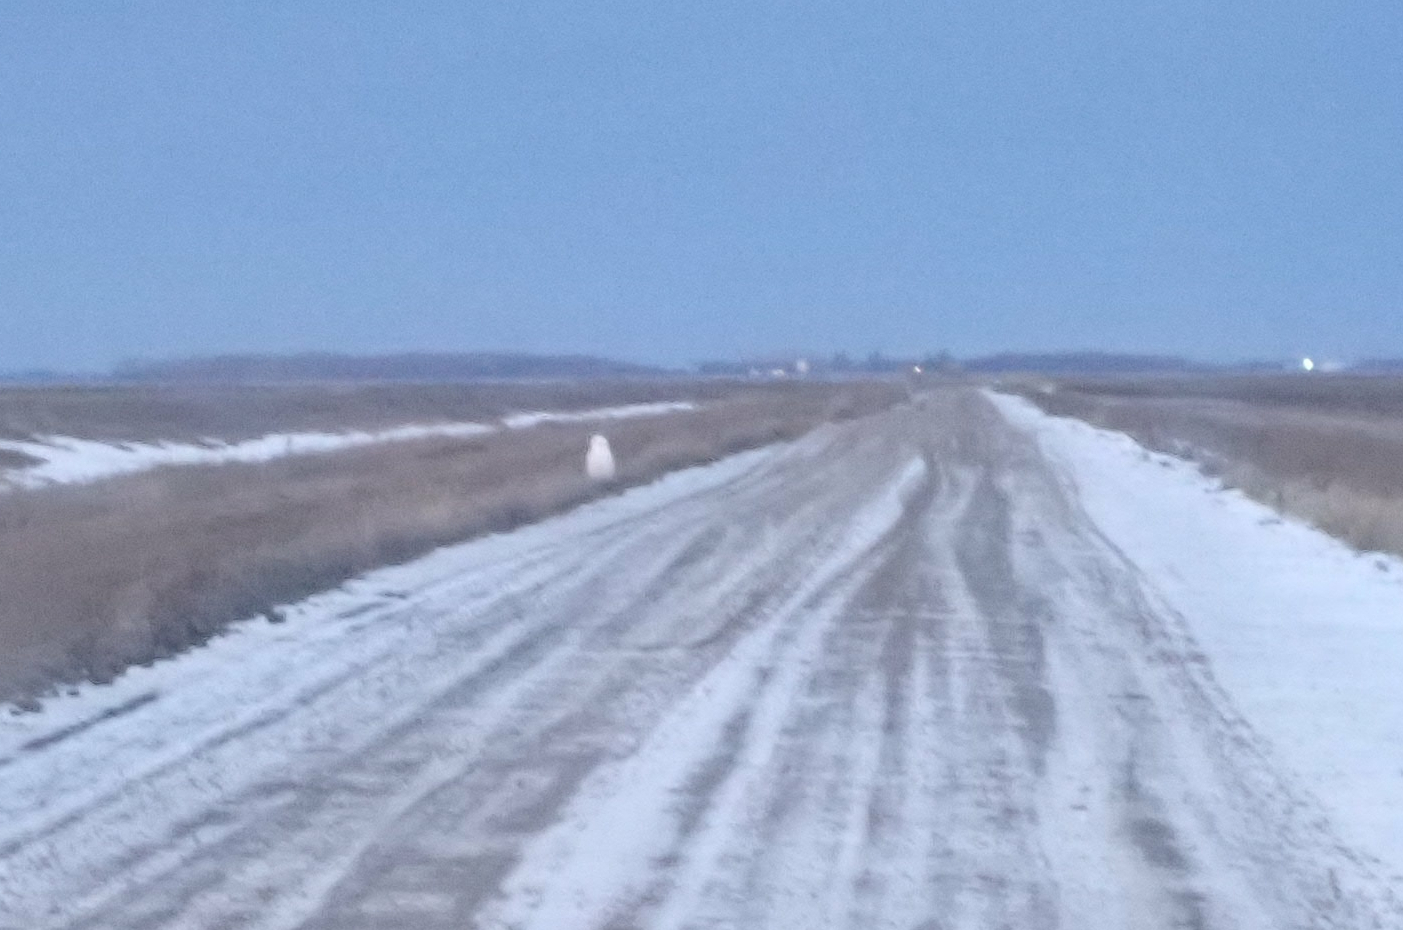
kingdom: Animalia
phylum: Chordata
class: Aves
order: Strigiformes
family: Strigidae
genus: Bubo
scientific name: Bubo scandiacus
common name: Snowy owl
